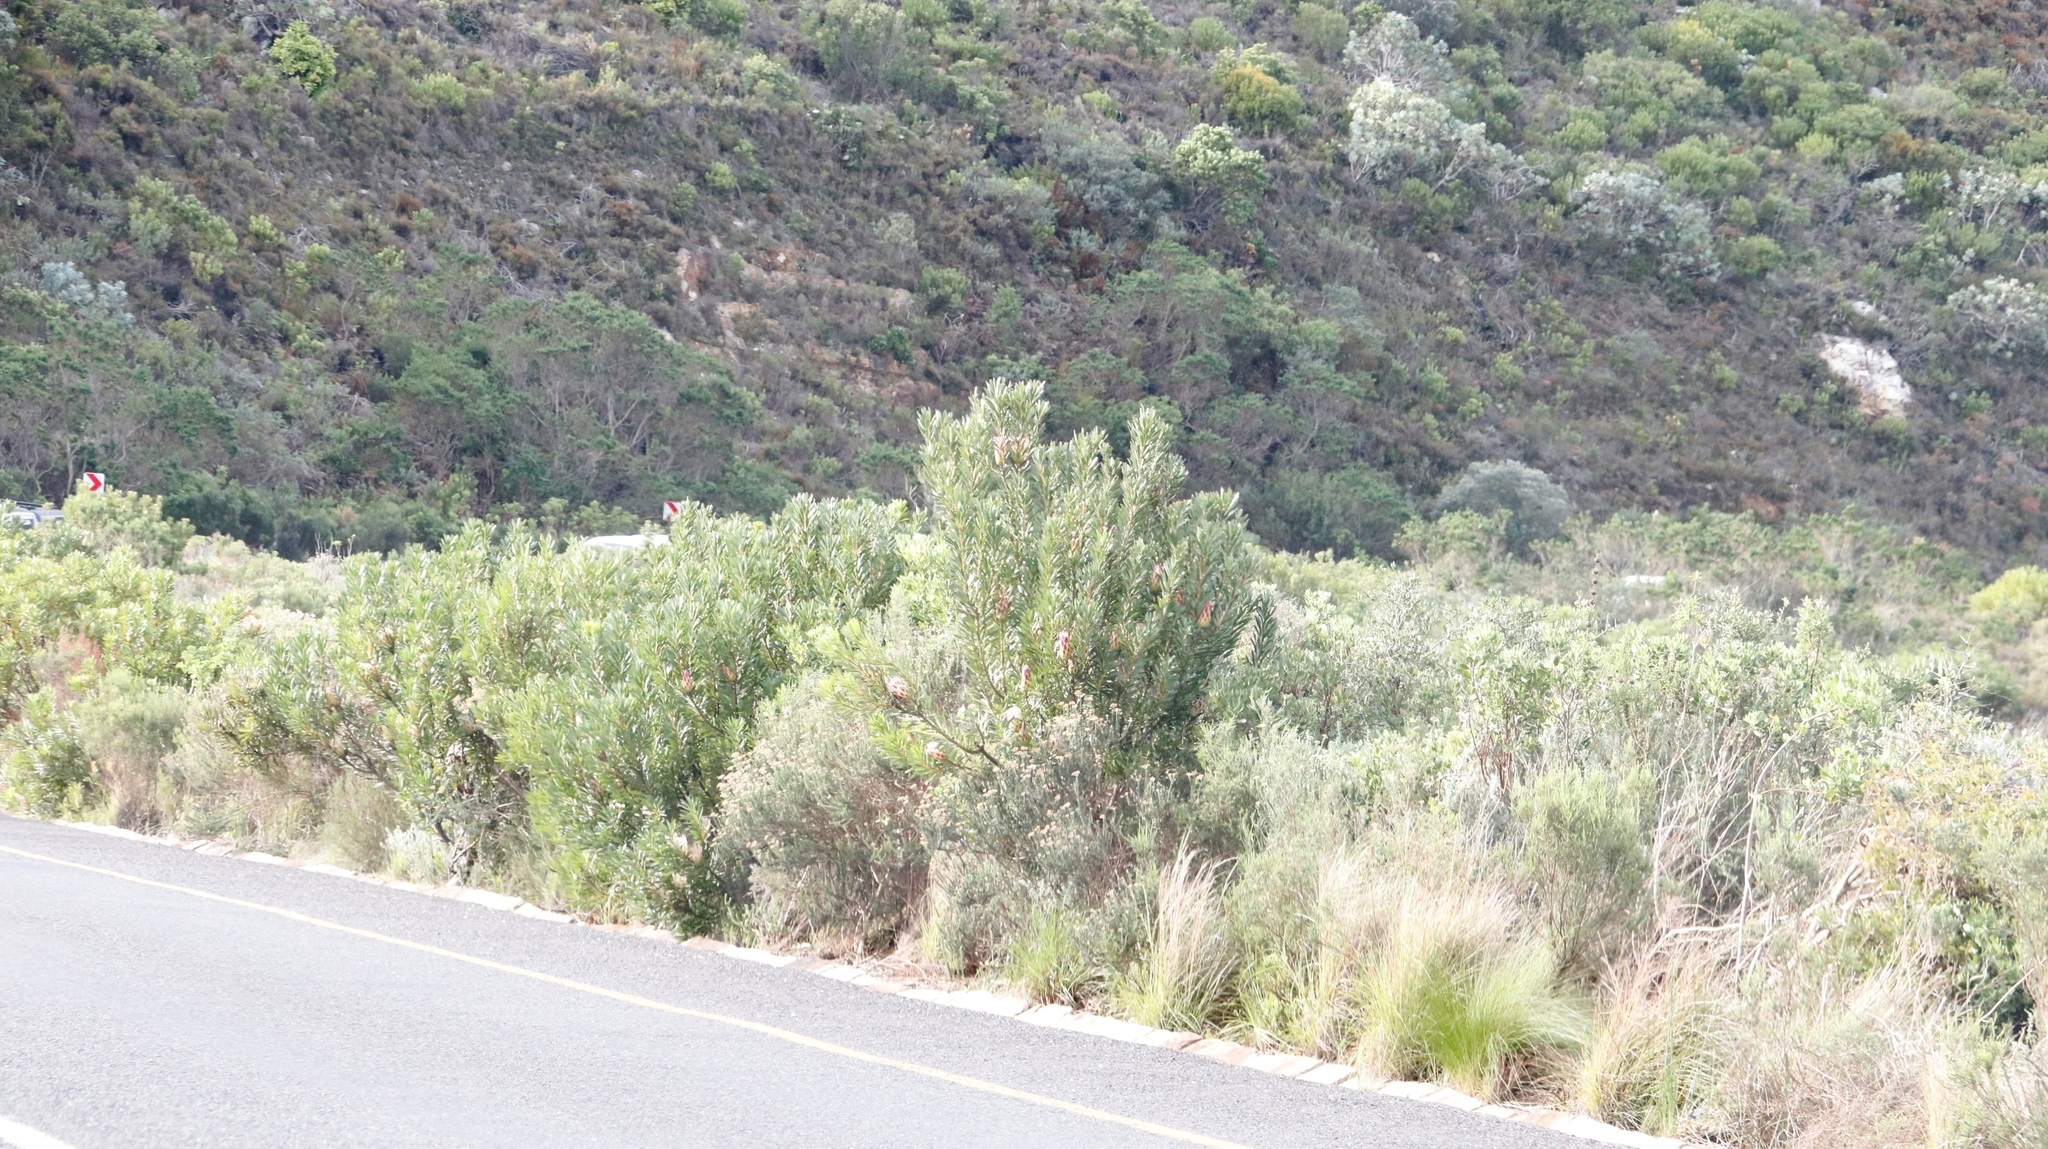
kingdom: Plantae
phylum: Tracheophyta
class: Magnoliopsida
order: Proteales
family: Proteaceae
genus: Protea
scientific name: Protea repens
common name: Sugarbush
